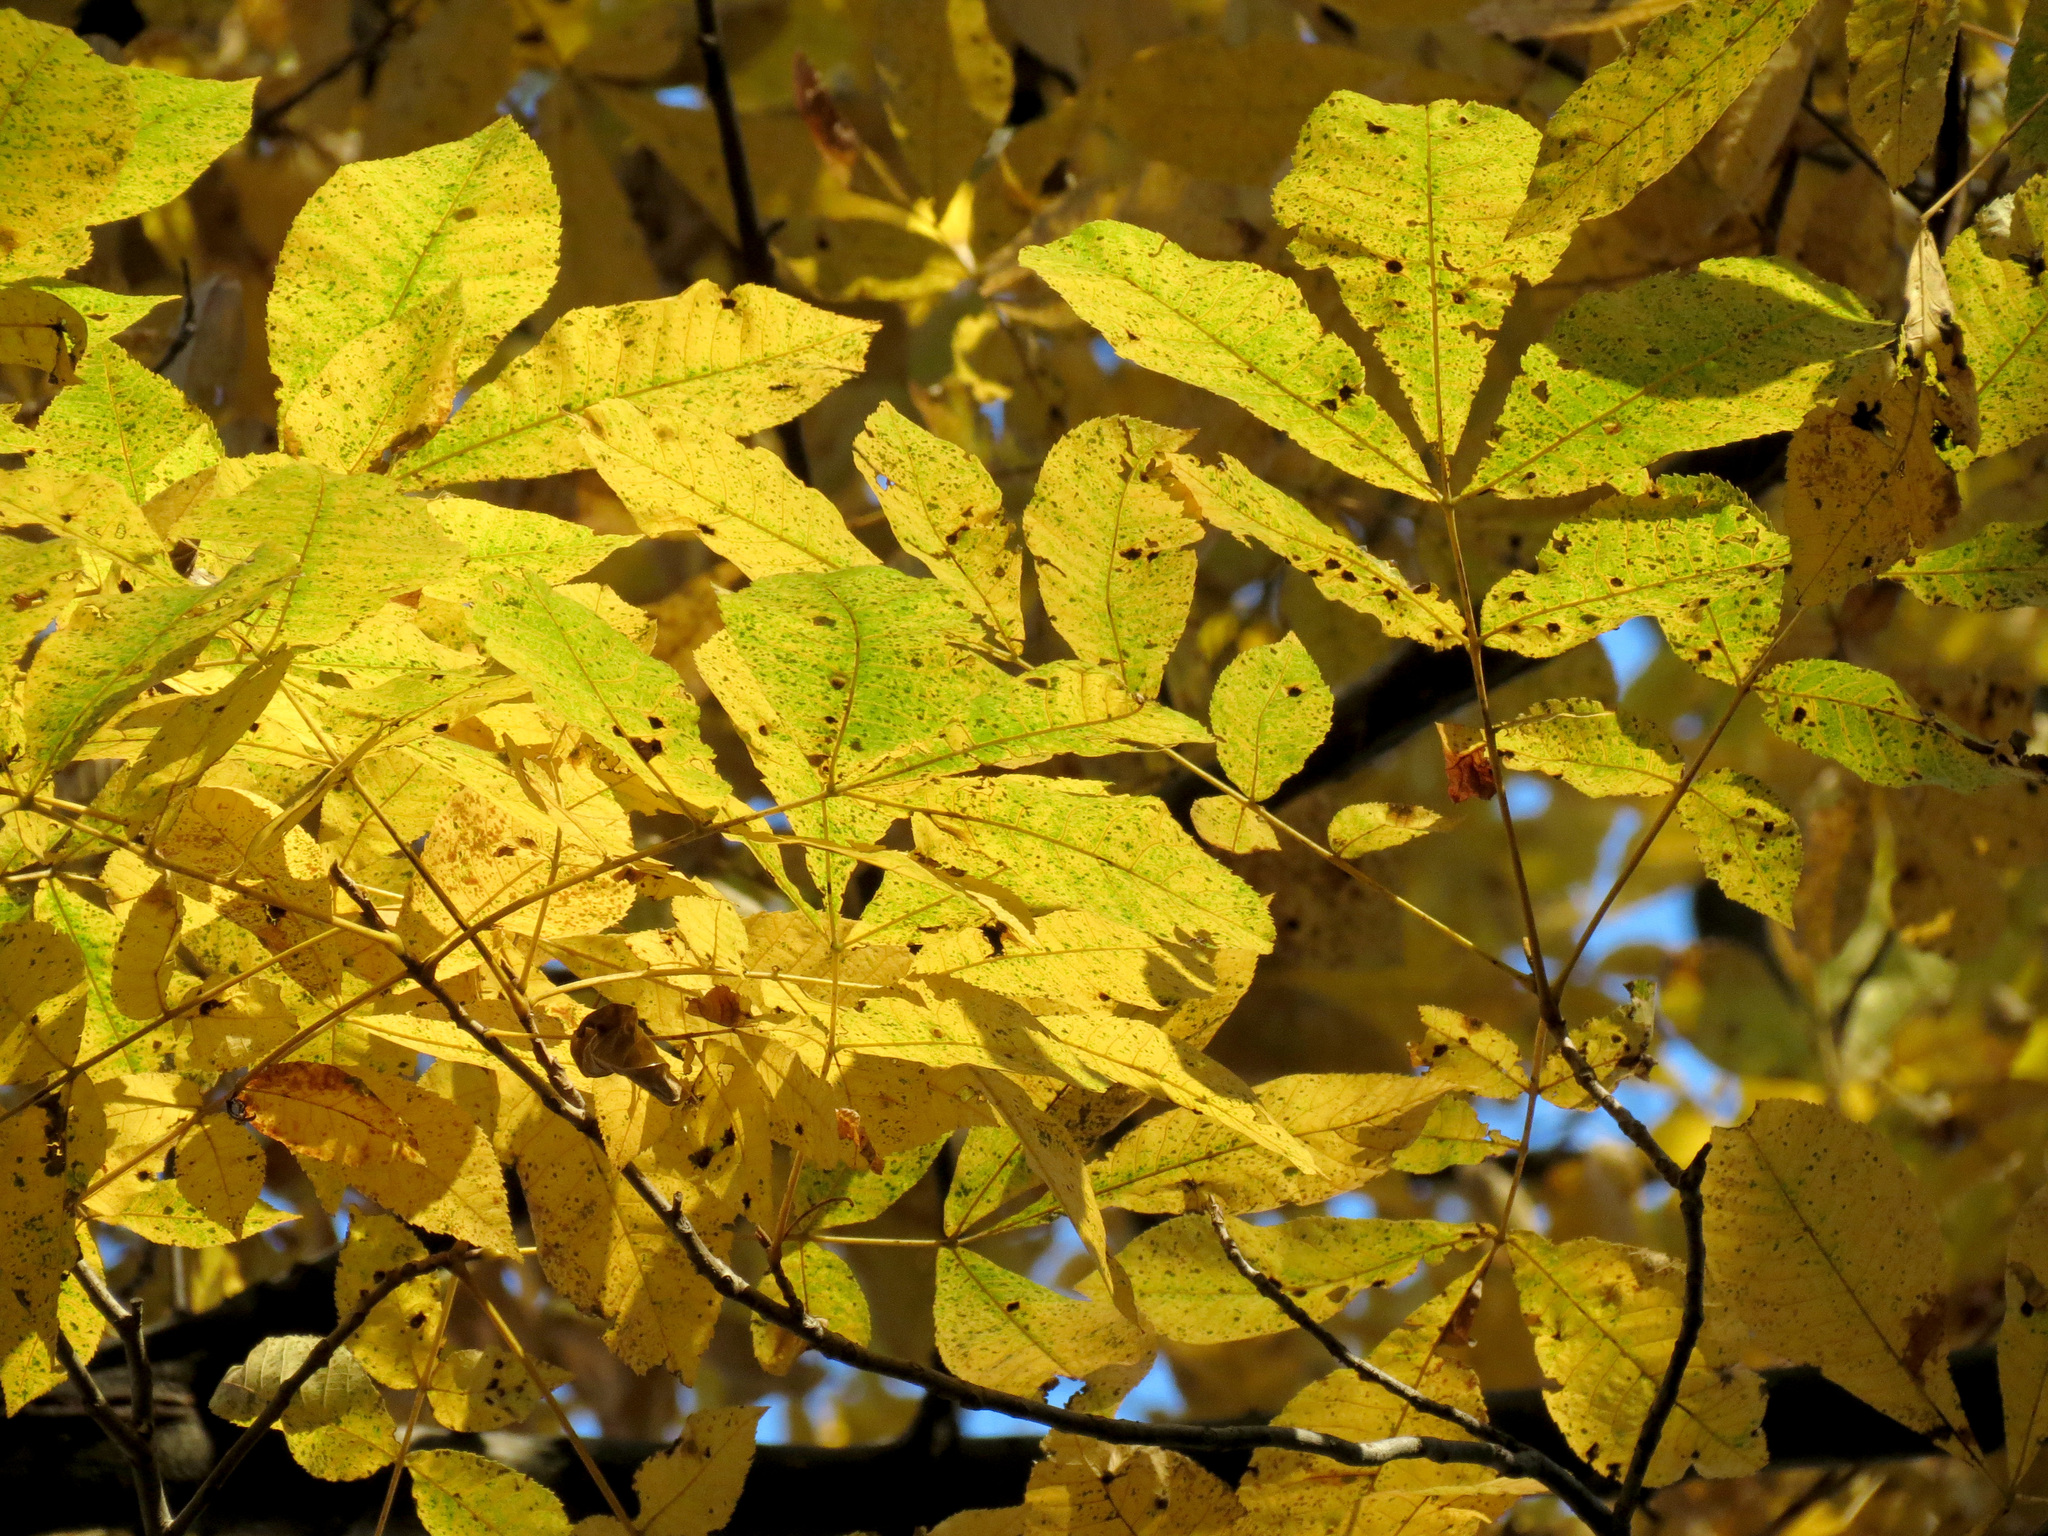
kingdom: Plantae
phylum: Tracheophyta
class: Magnoliopsida
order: Fagales
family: Juglandaceae
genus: Carya
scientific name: Carya cordiformis
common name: Bitternut hickory
